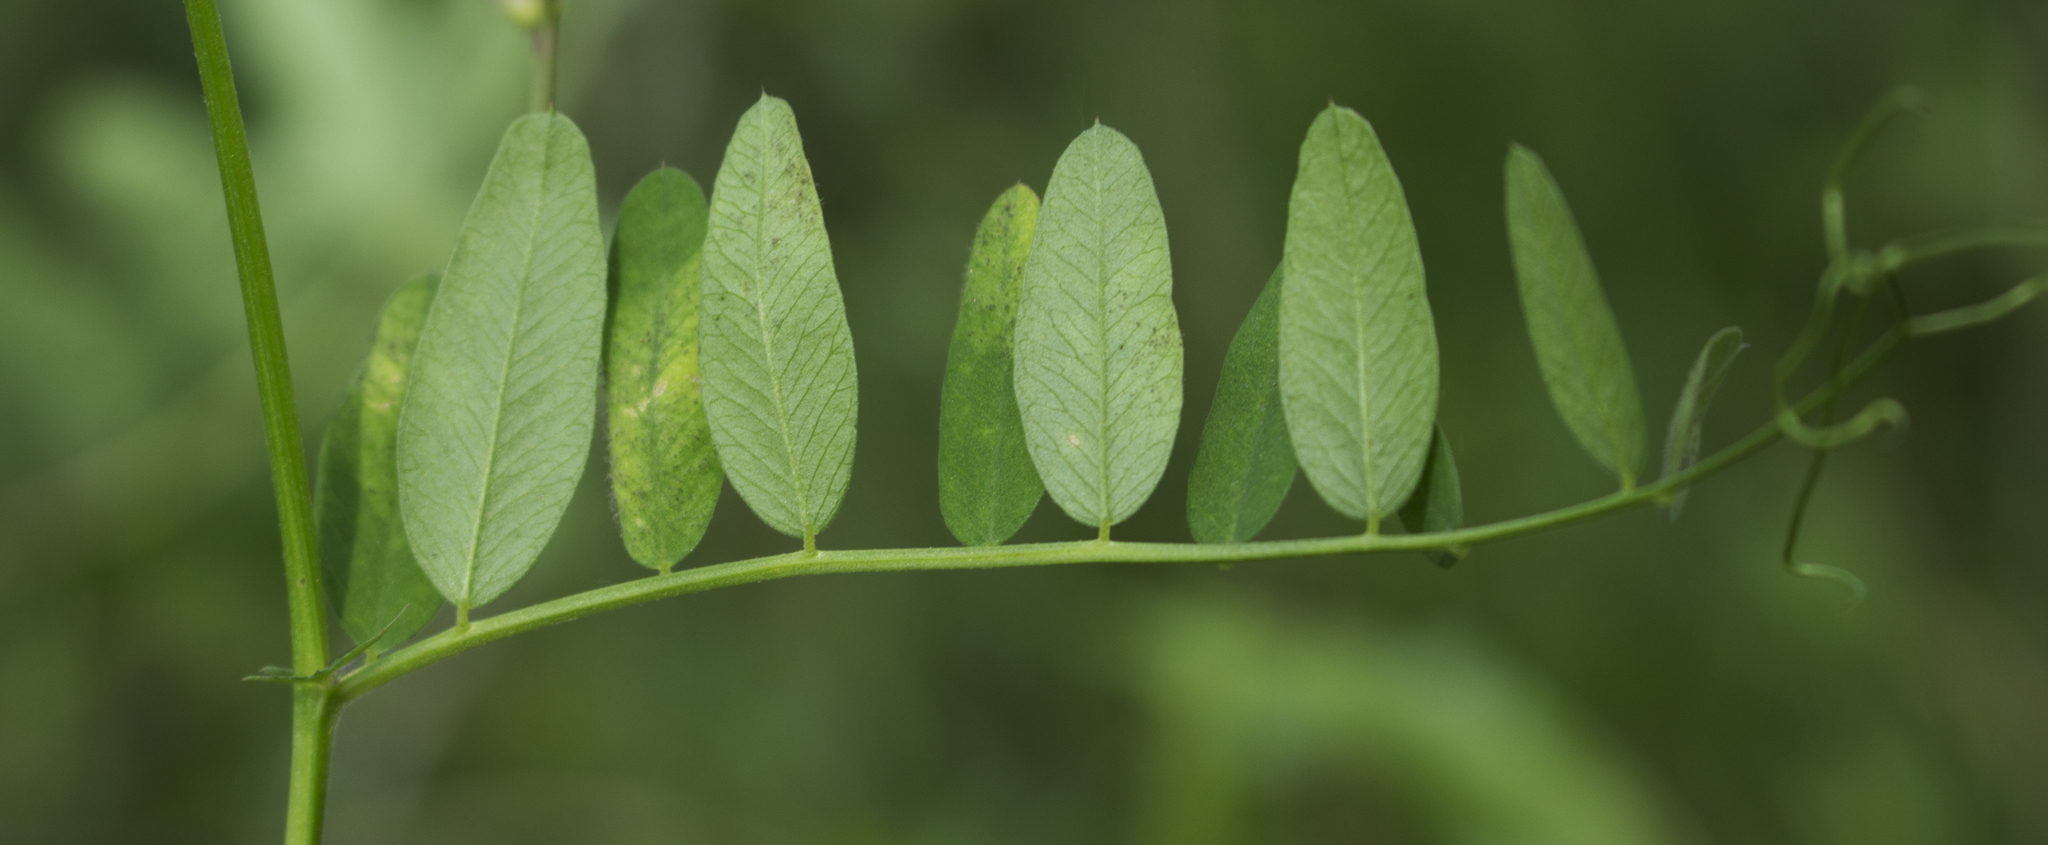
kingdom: Plantae
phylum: Tracheophyta
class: Magnoliopsida
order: Fabales
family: Fabaceae
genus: Vicia
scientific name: Vicia americana
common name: American vetch
